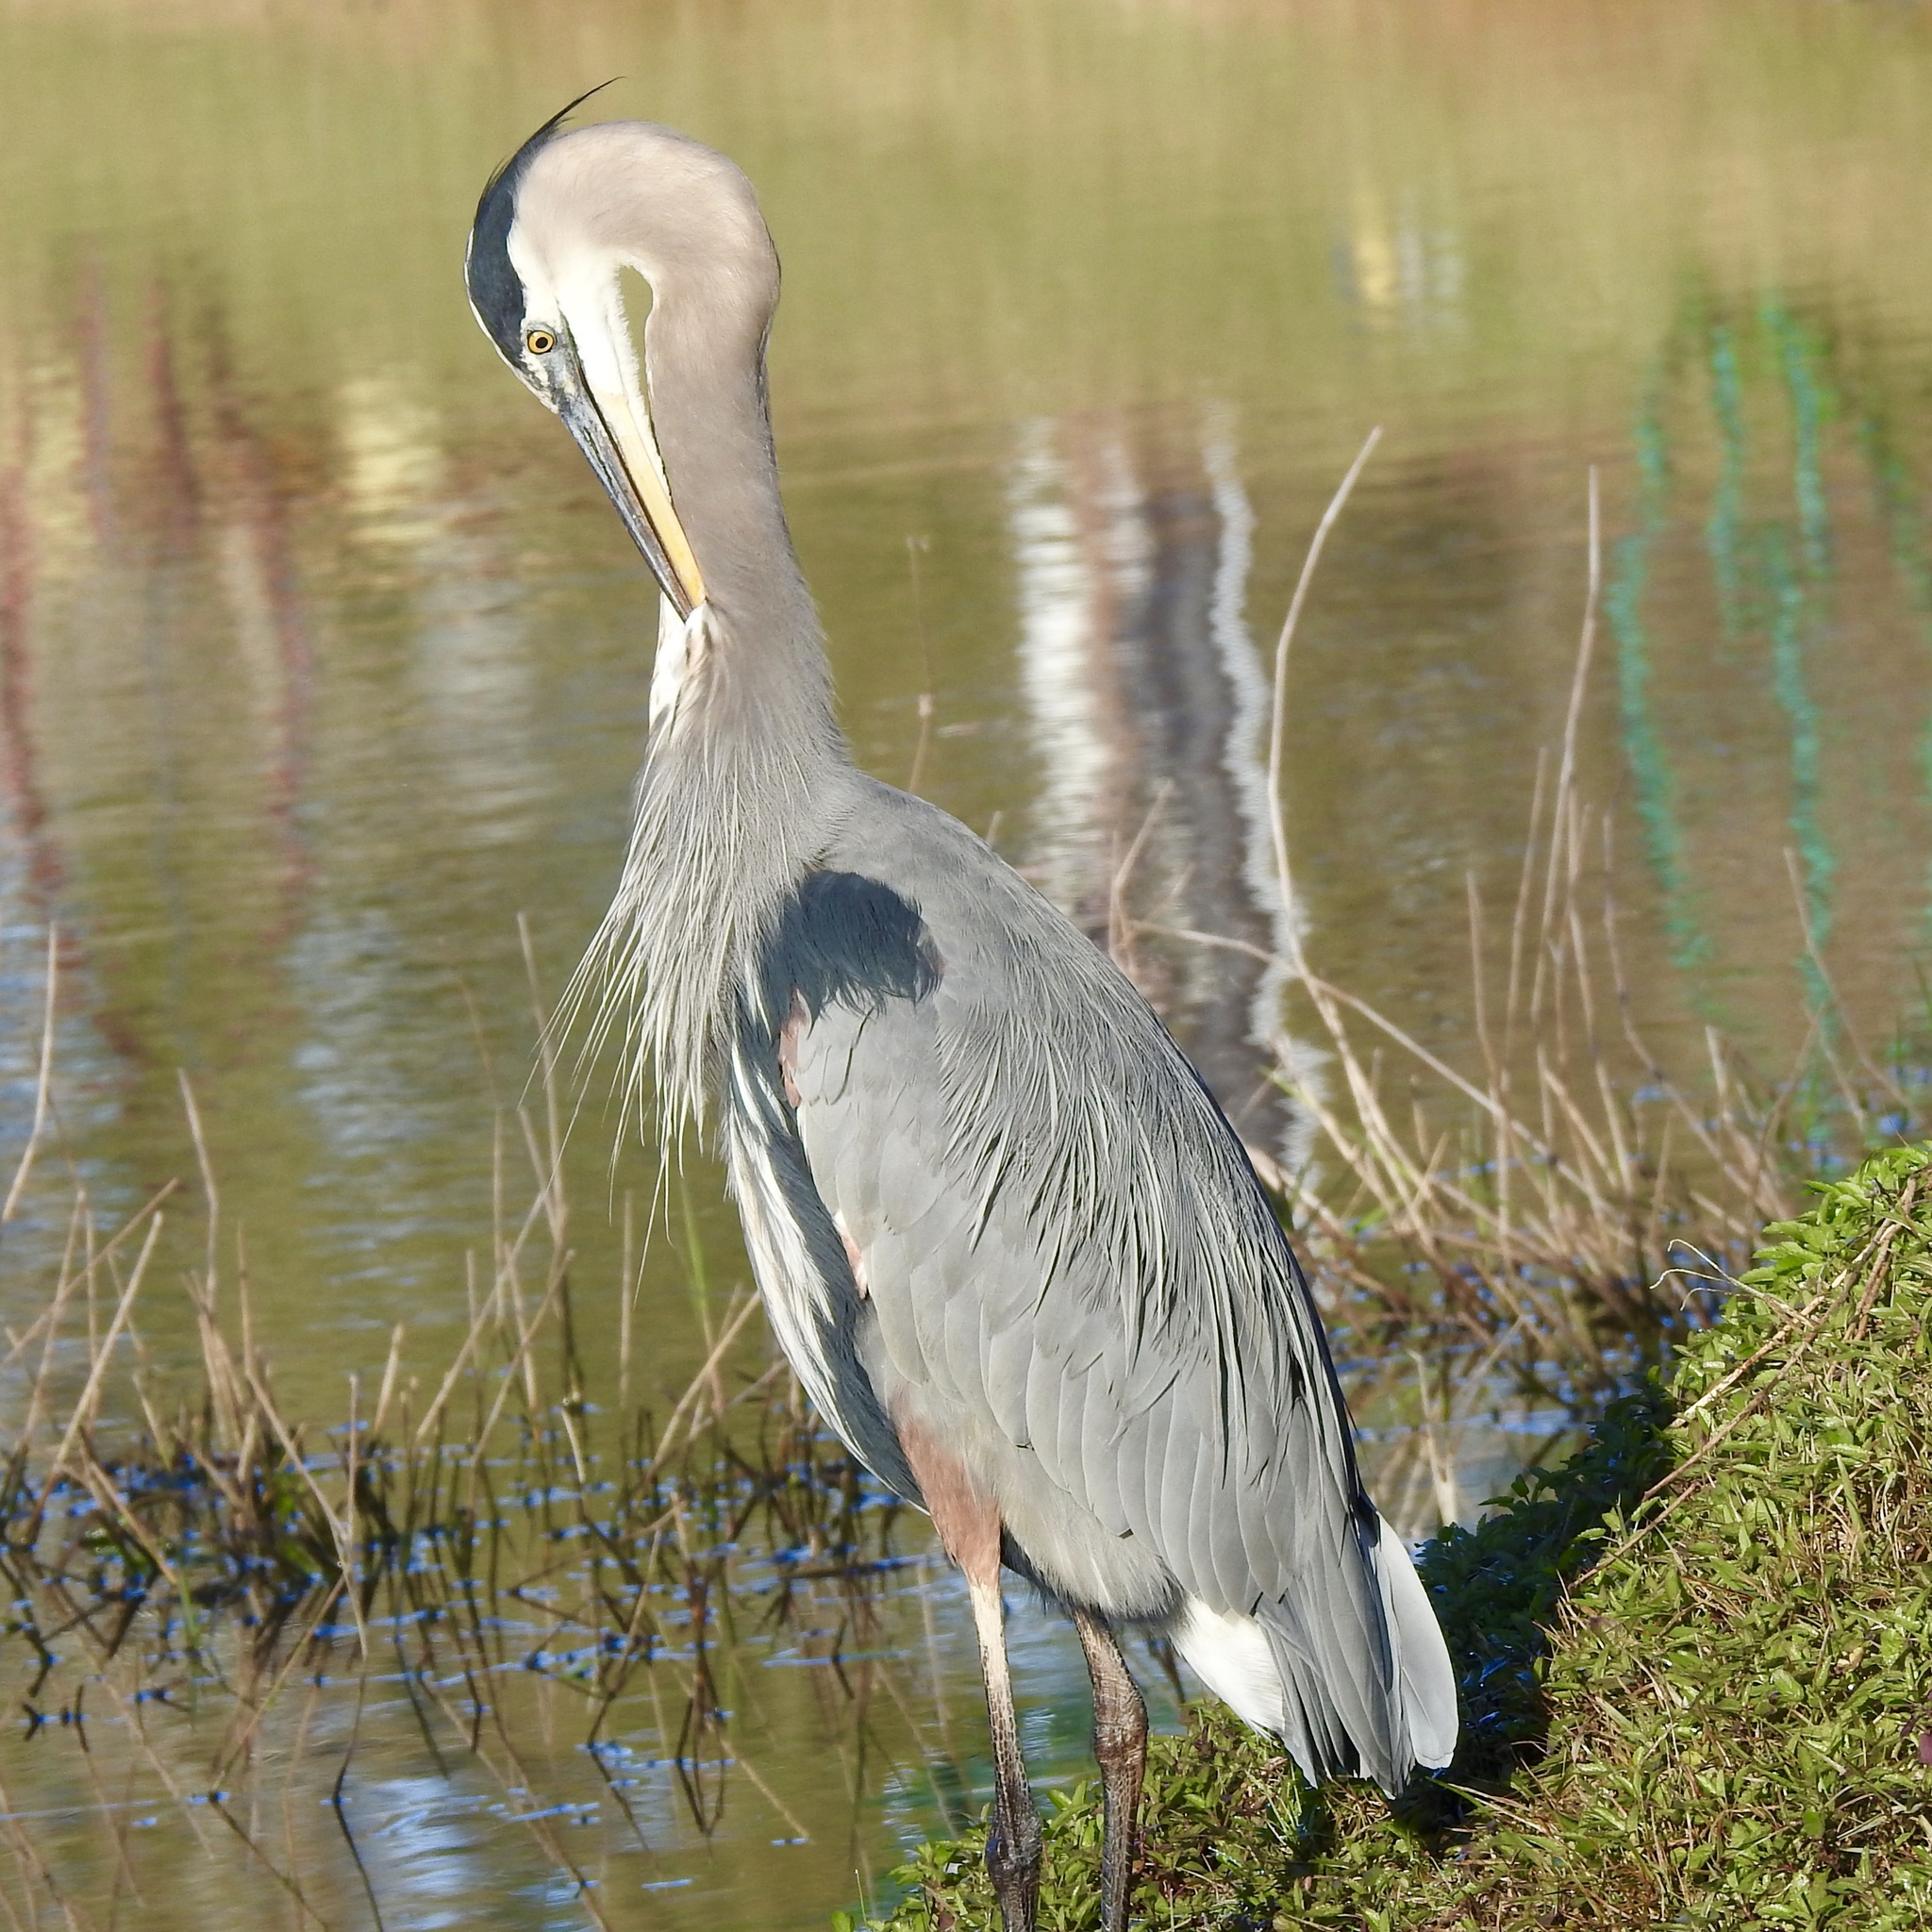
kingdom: Animalia
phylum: Chordata
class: Aves
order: Pelecaniformes
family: Ardeidae
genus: Ardea
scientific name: Ardea herodias
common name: Great blue heron
